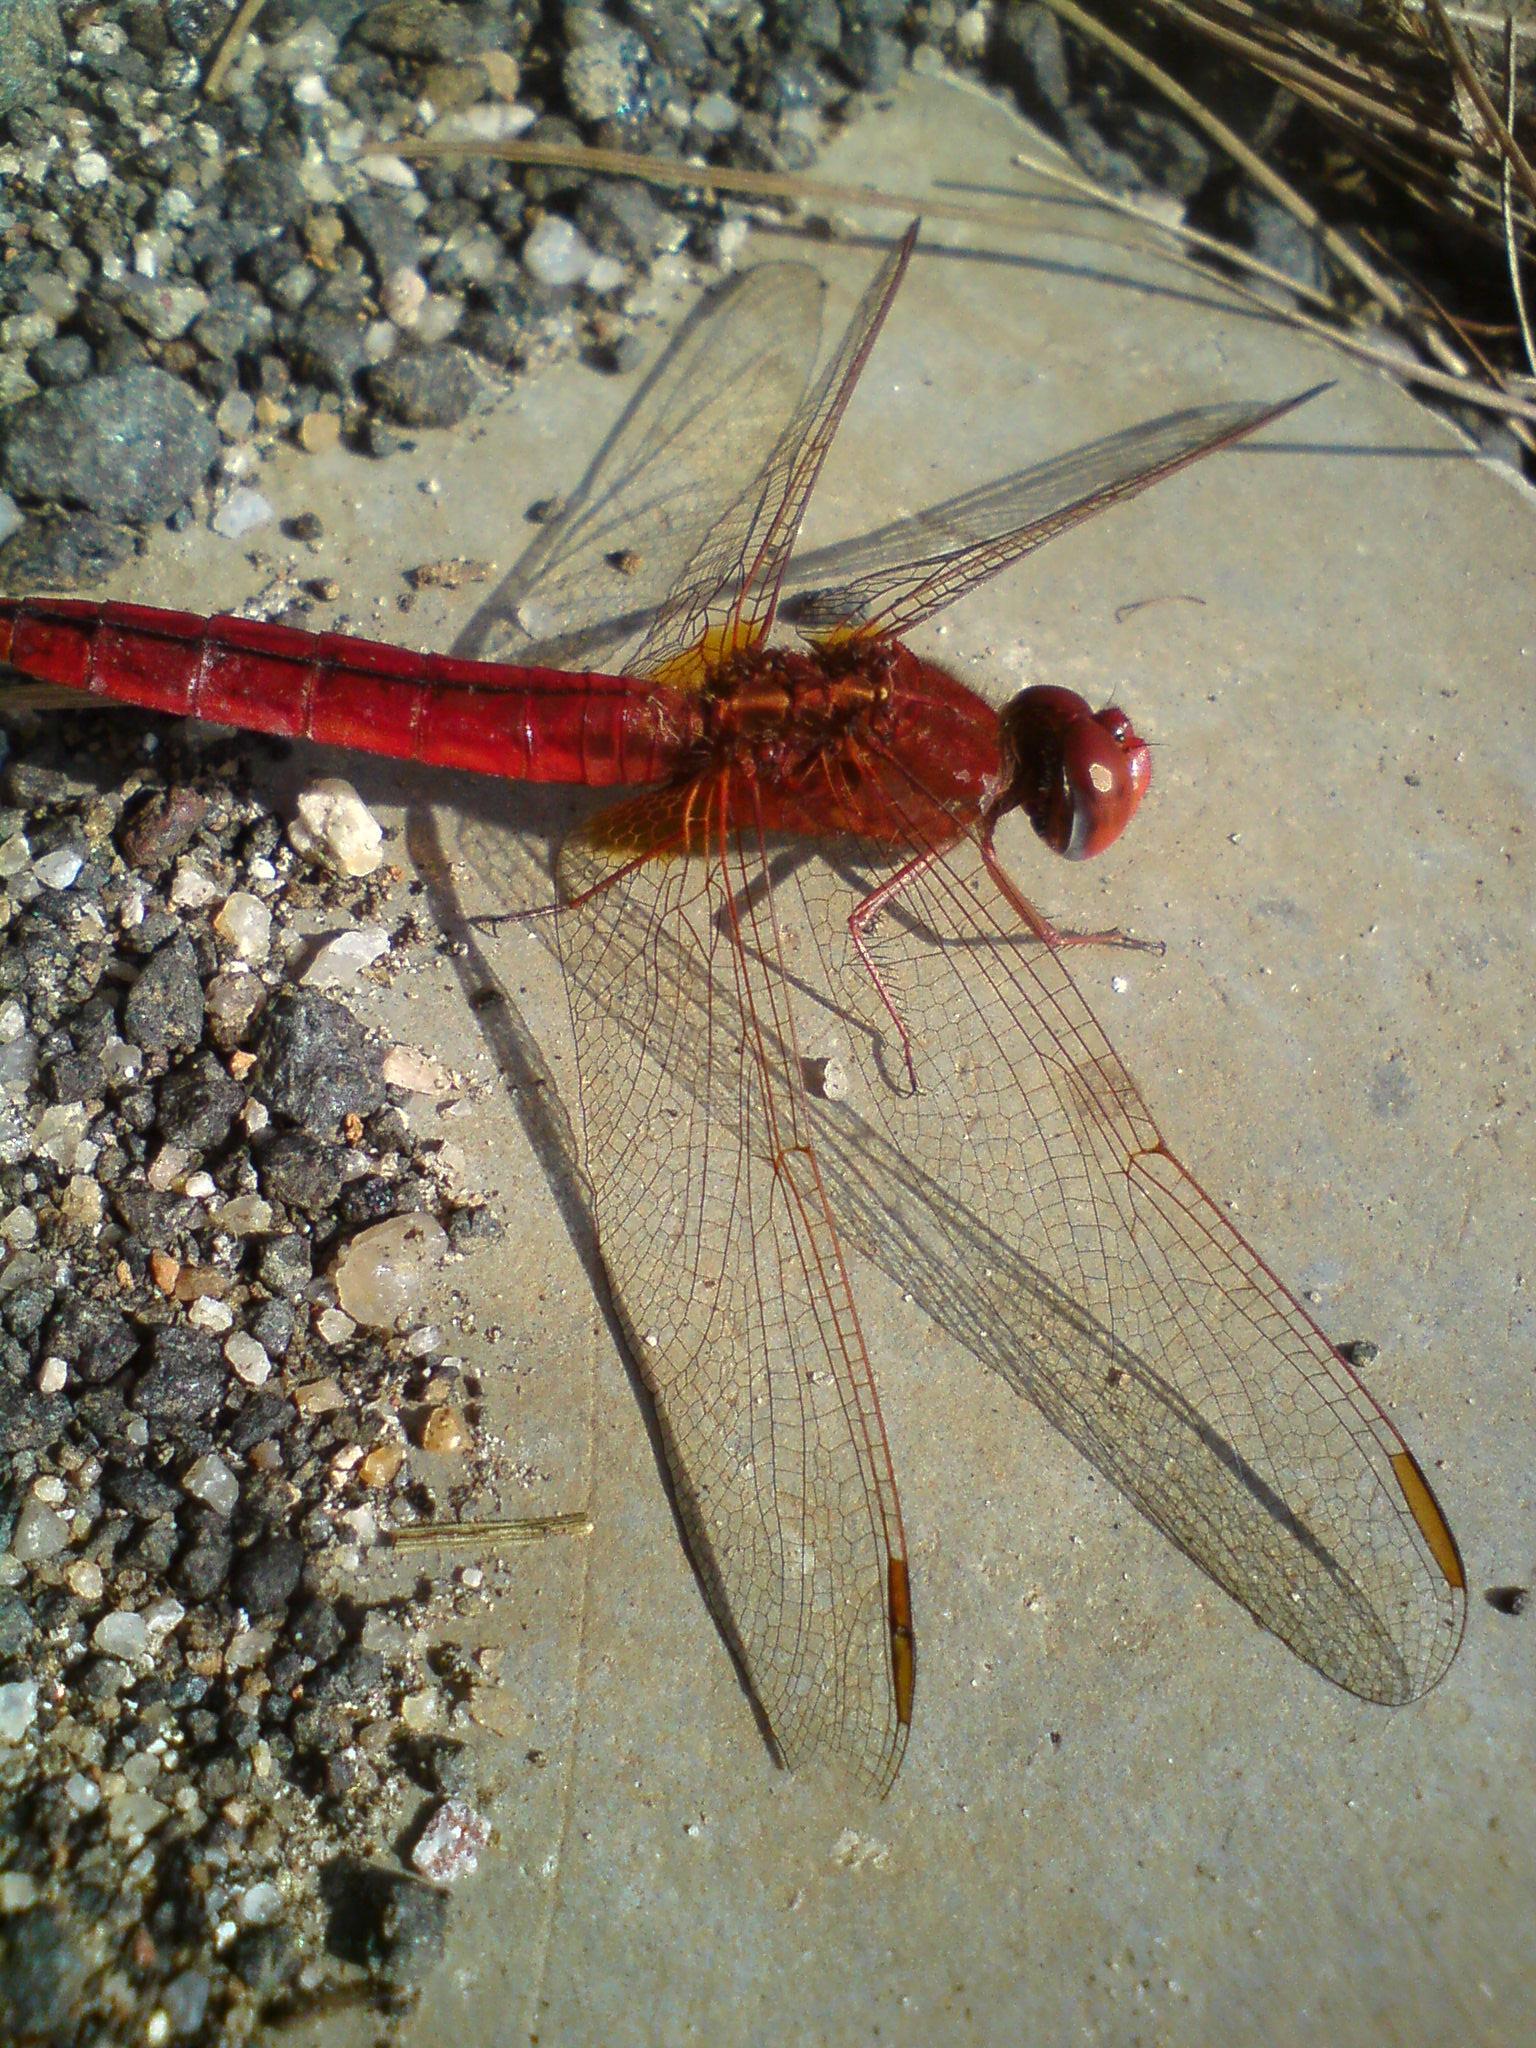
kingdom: Animalia
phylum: Arthropoda
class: Insecta
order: Odonata
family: Libellulidae
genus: Crocothemis
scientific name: Crocothemis servilia
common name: Scarlet skimmer
